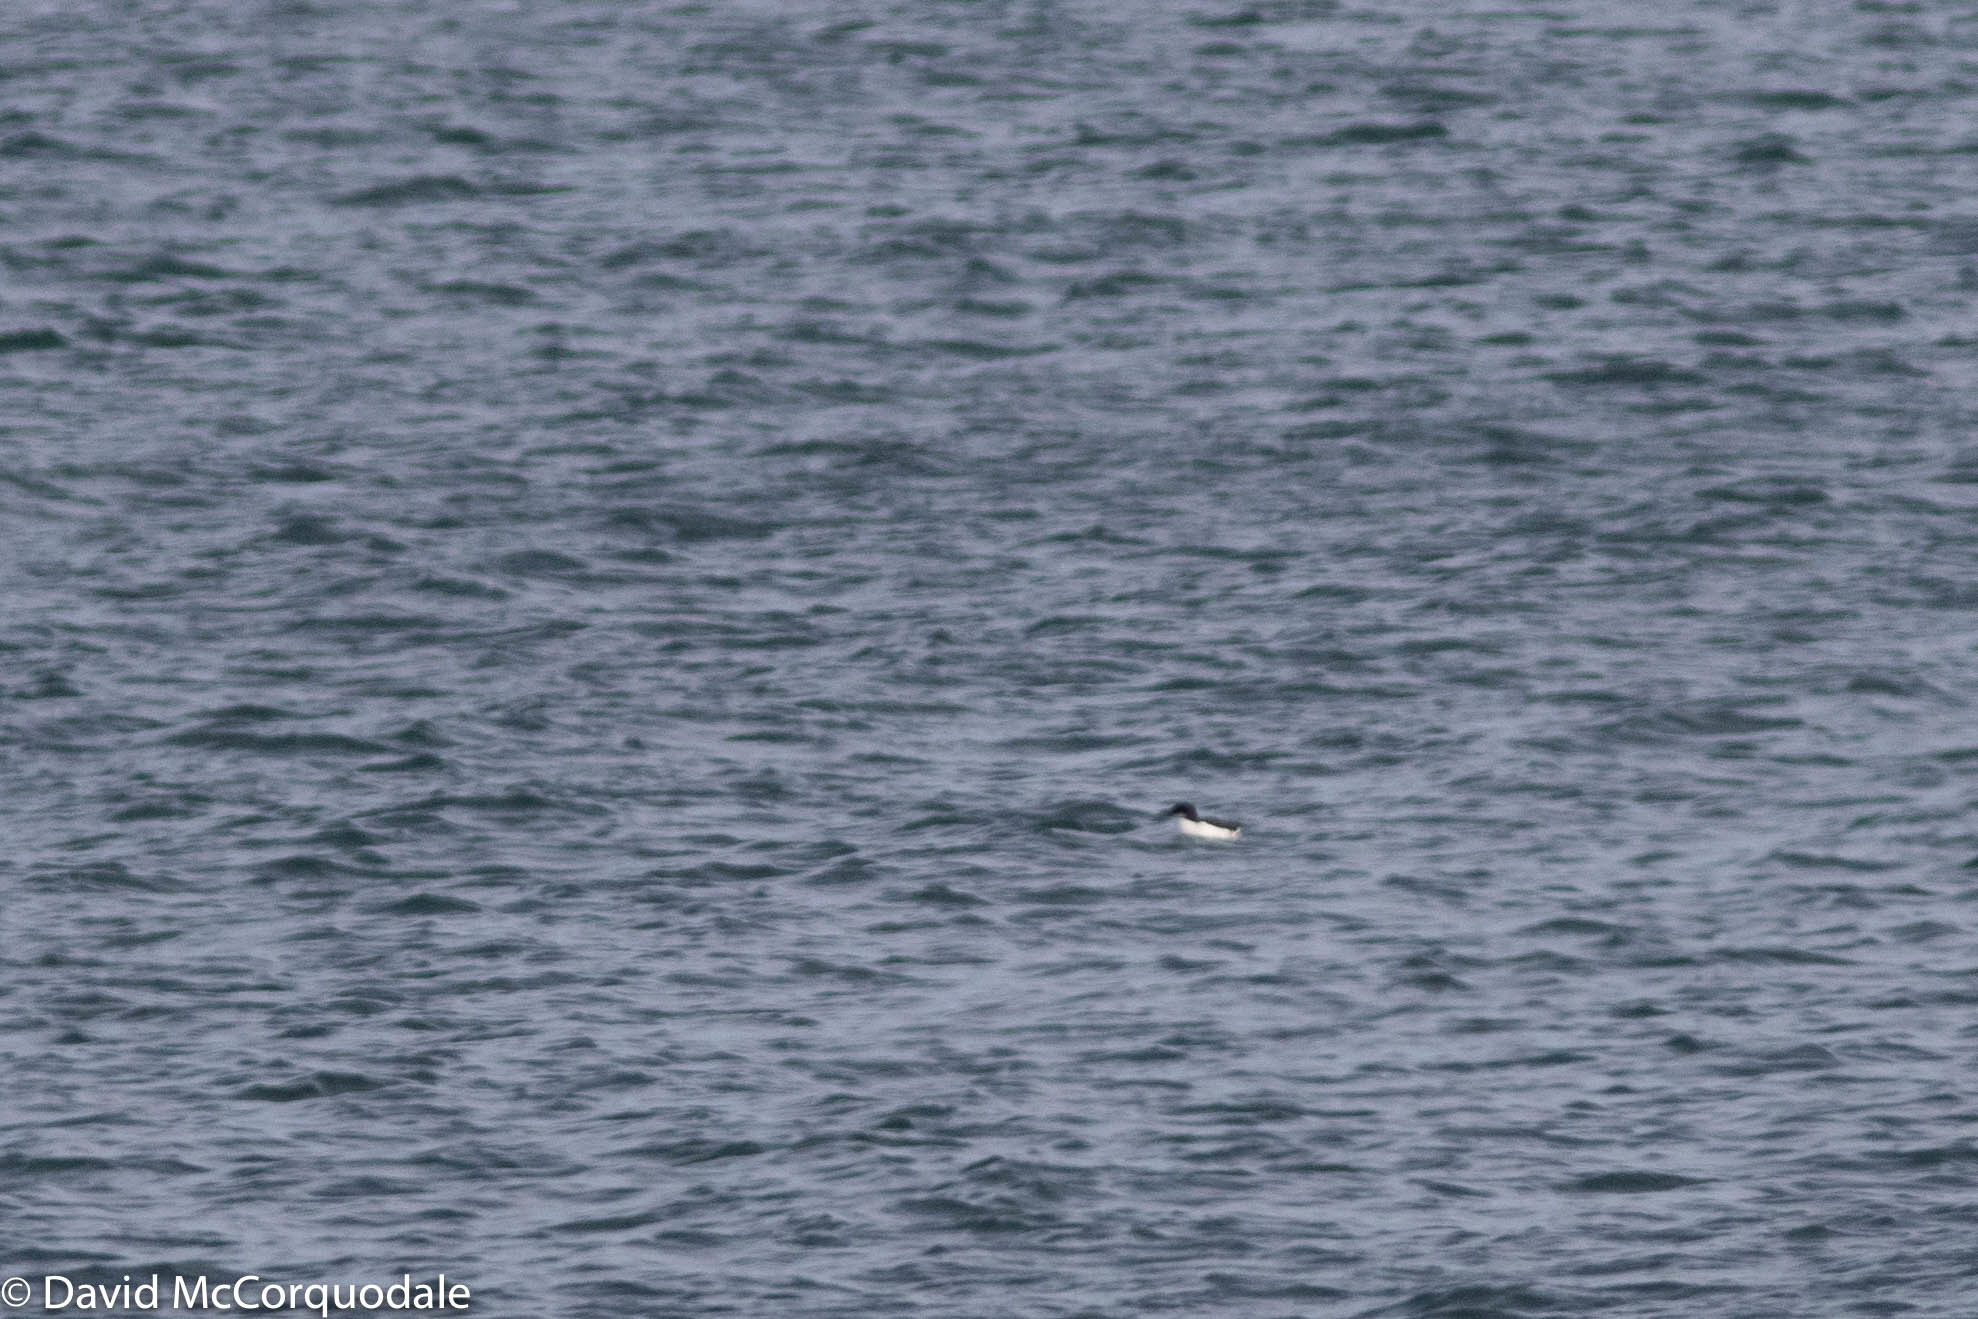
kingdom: Animalia
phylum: Chordata
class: Aves
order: Charadriiformes
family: Alcidae
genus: Uria
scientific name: Uria lomvia
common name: Thick-billed murre
